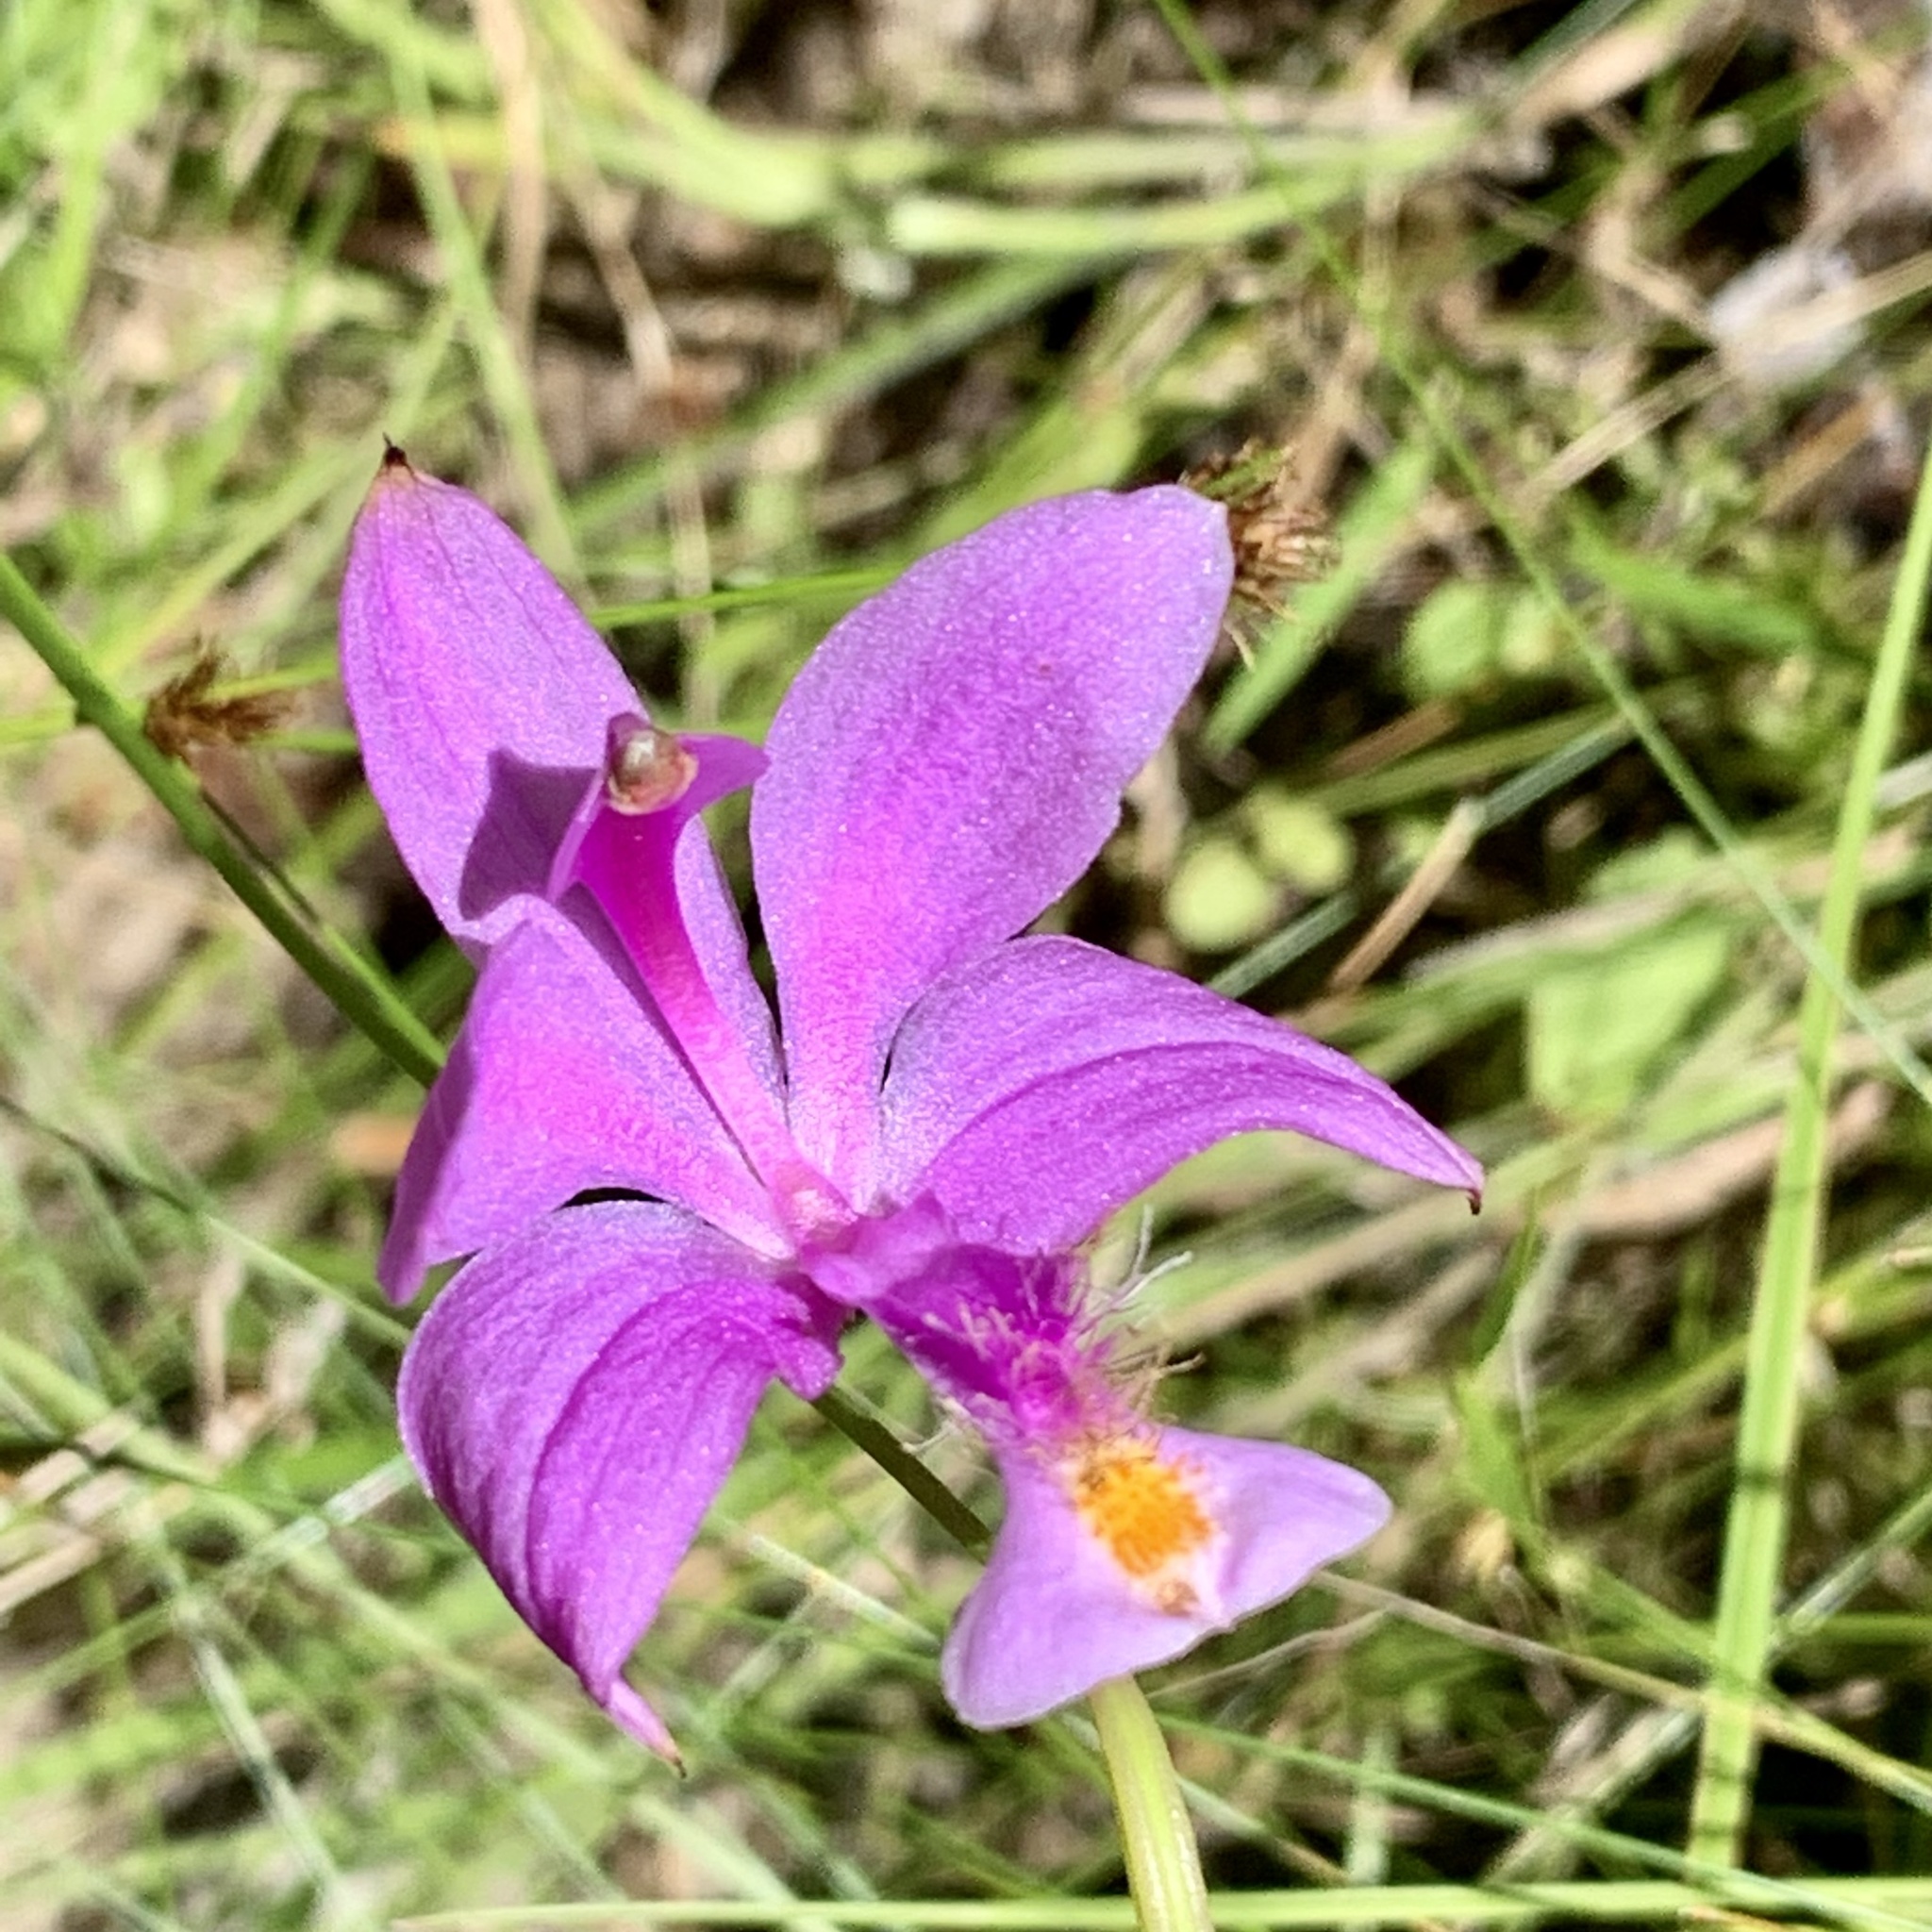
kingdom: Plantae
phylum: Tracheophyta
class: Liliopsida
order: Asparagales
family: Orchidaceae
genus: Calopogon
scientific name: Calopogon tuberosus
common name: Grass-pink
